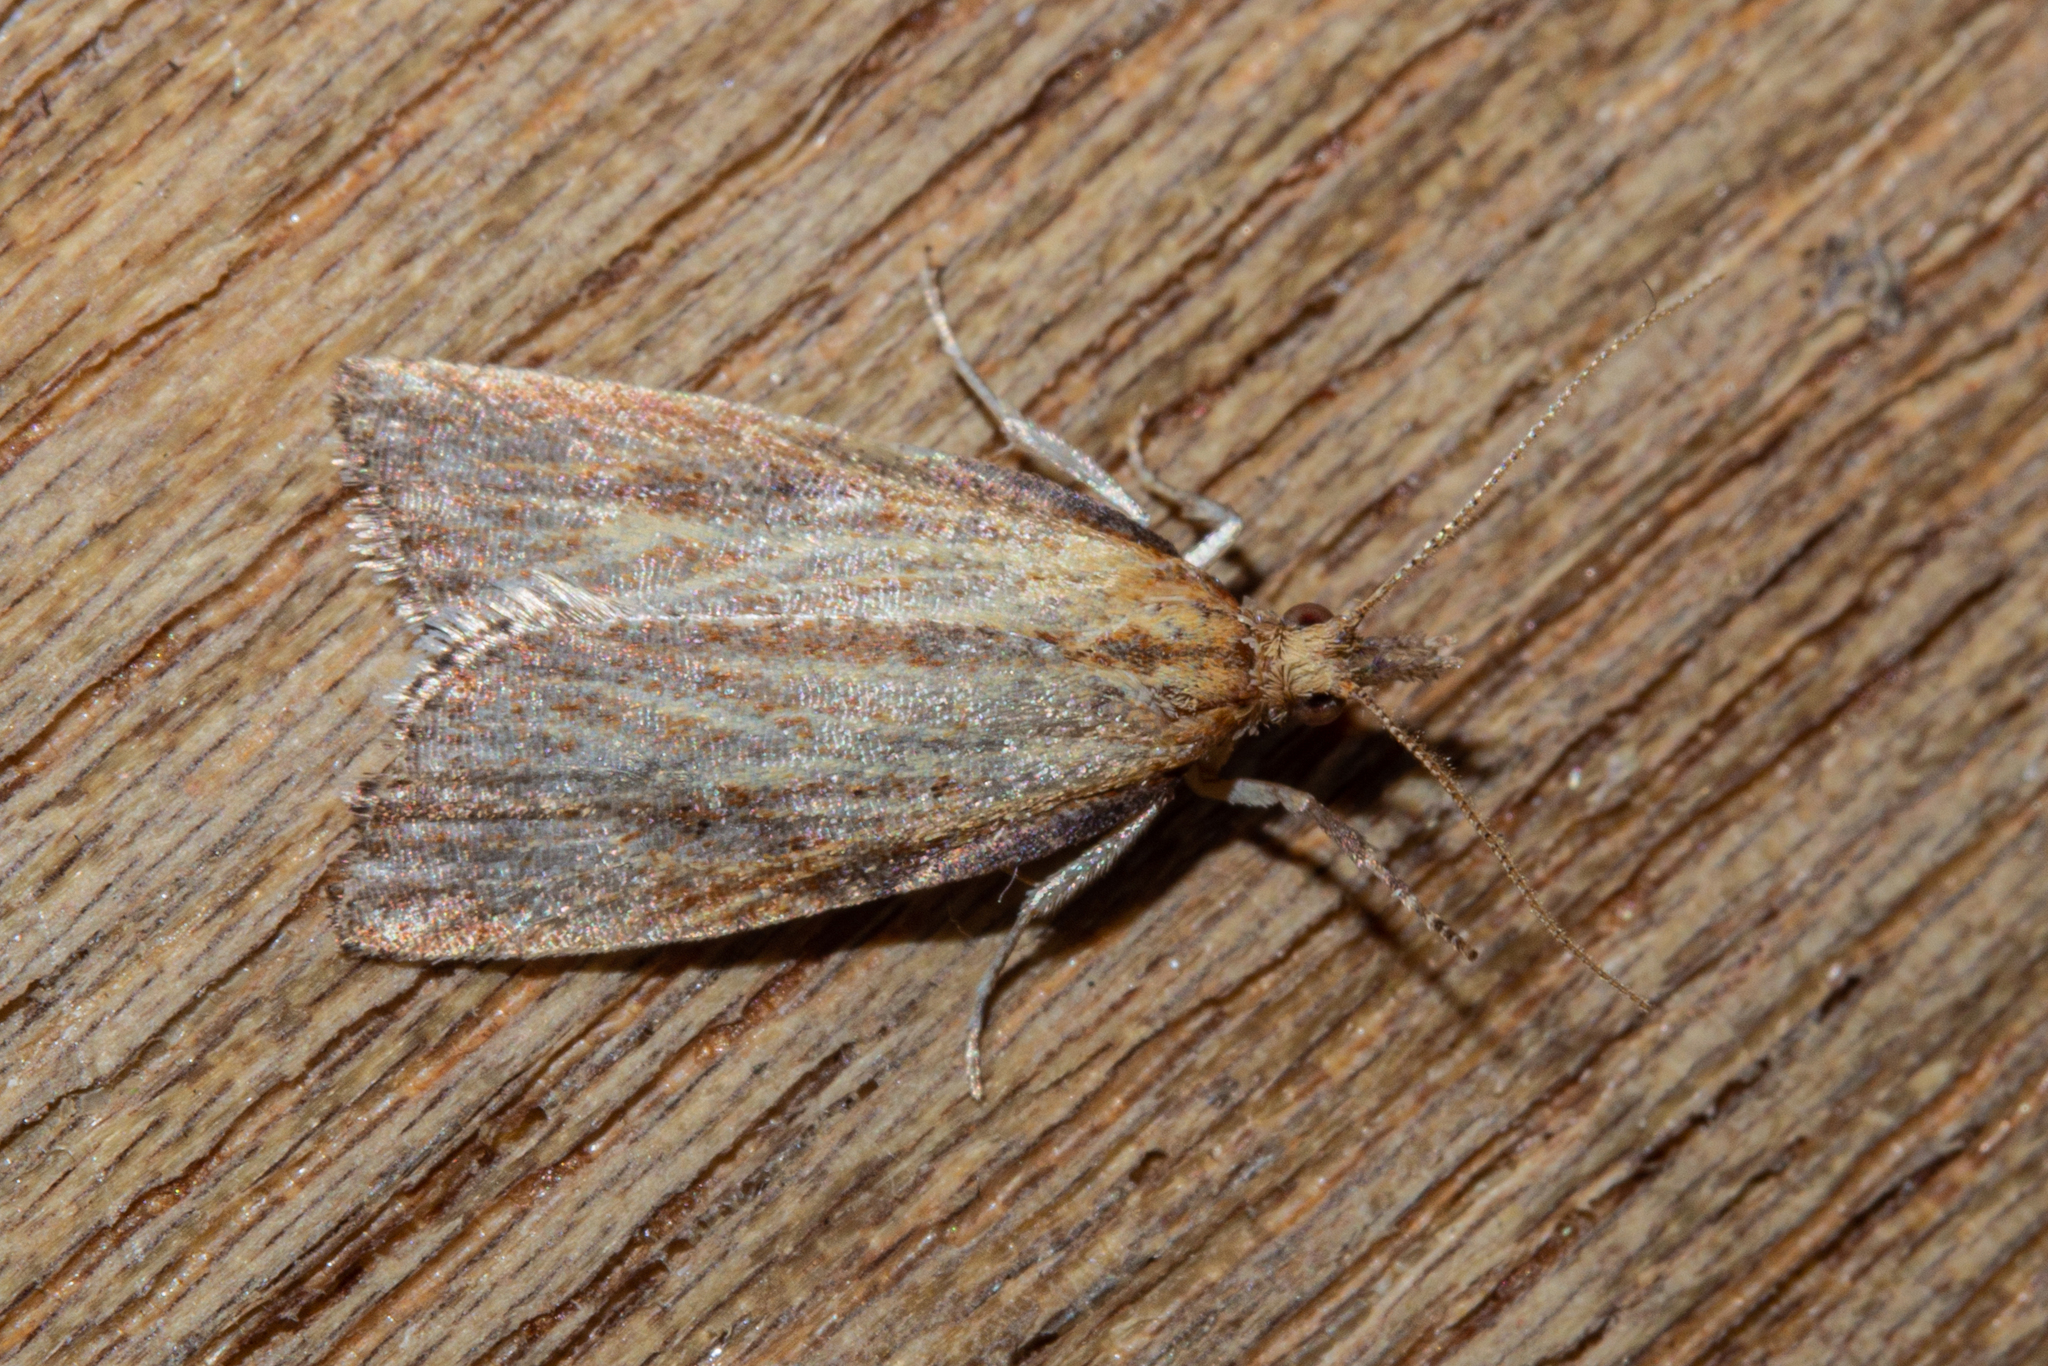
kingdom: Animalia
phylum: Arthropoda
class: Insecta
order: Lepidoptera
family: Tortricidae
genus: Catamacta
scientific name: Catamacta lotinana
